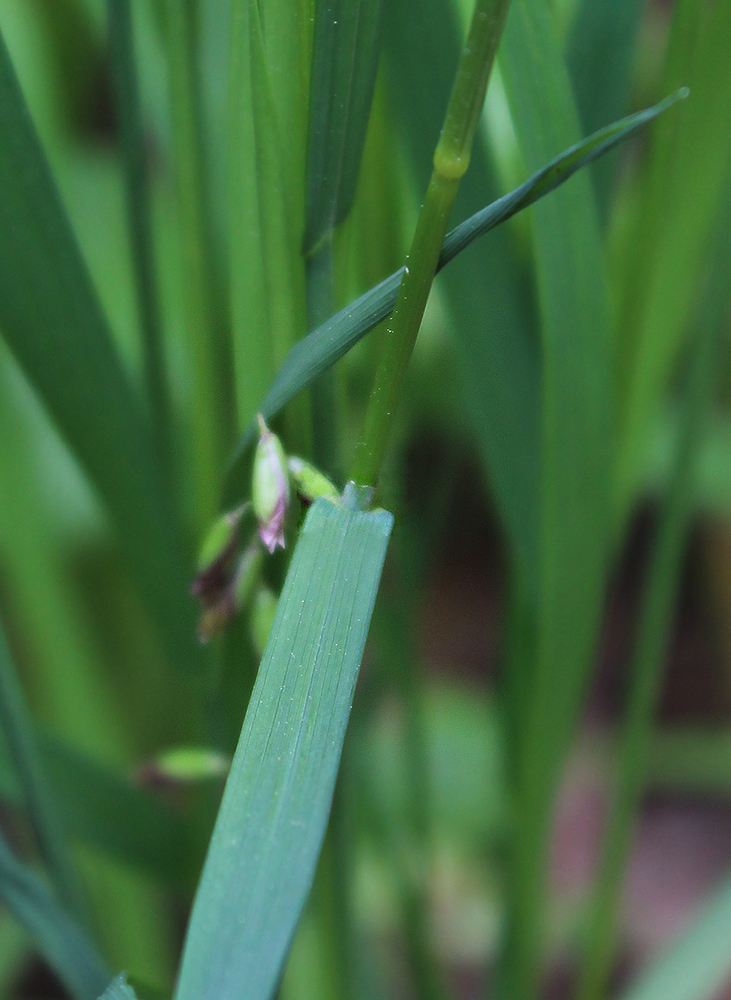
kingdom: Plantae
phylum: Tracheophyta
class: Liliopsida
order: Poales
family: Poaceae
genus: Melica
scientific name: Melica picta
